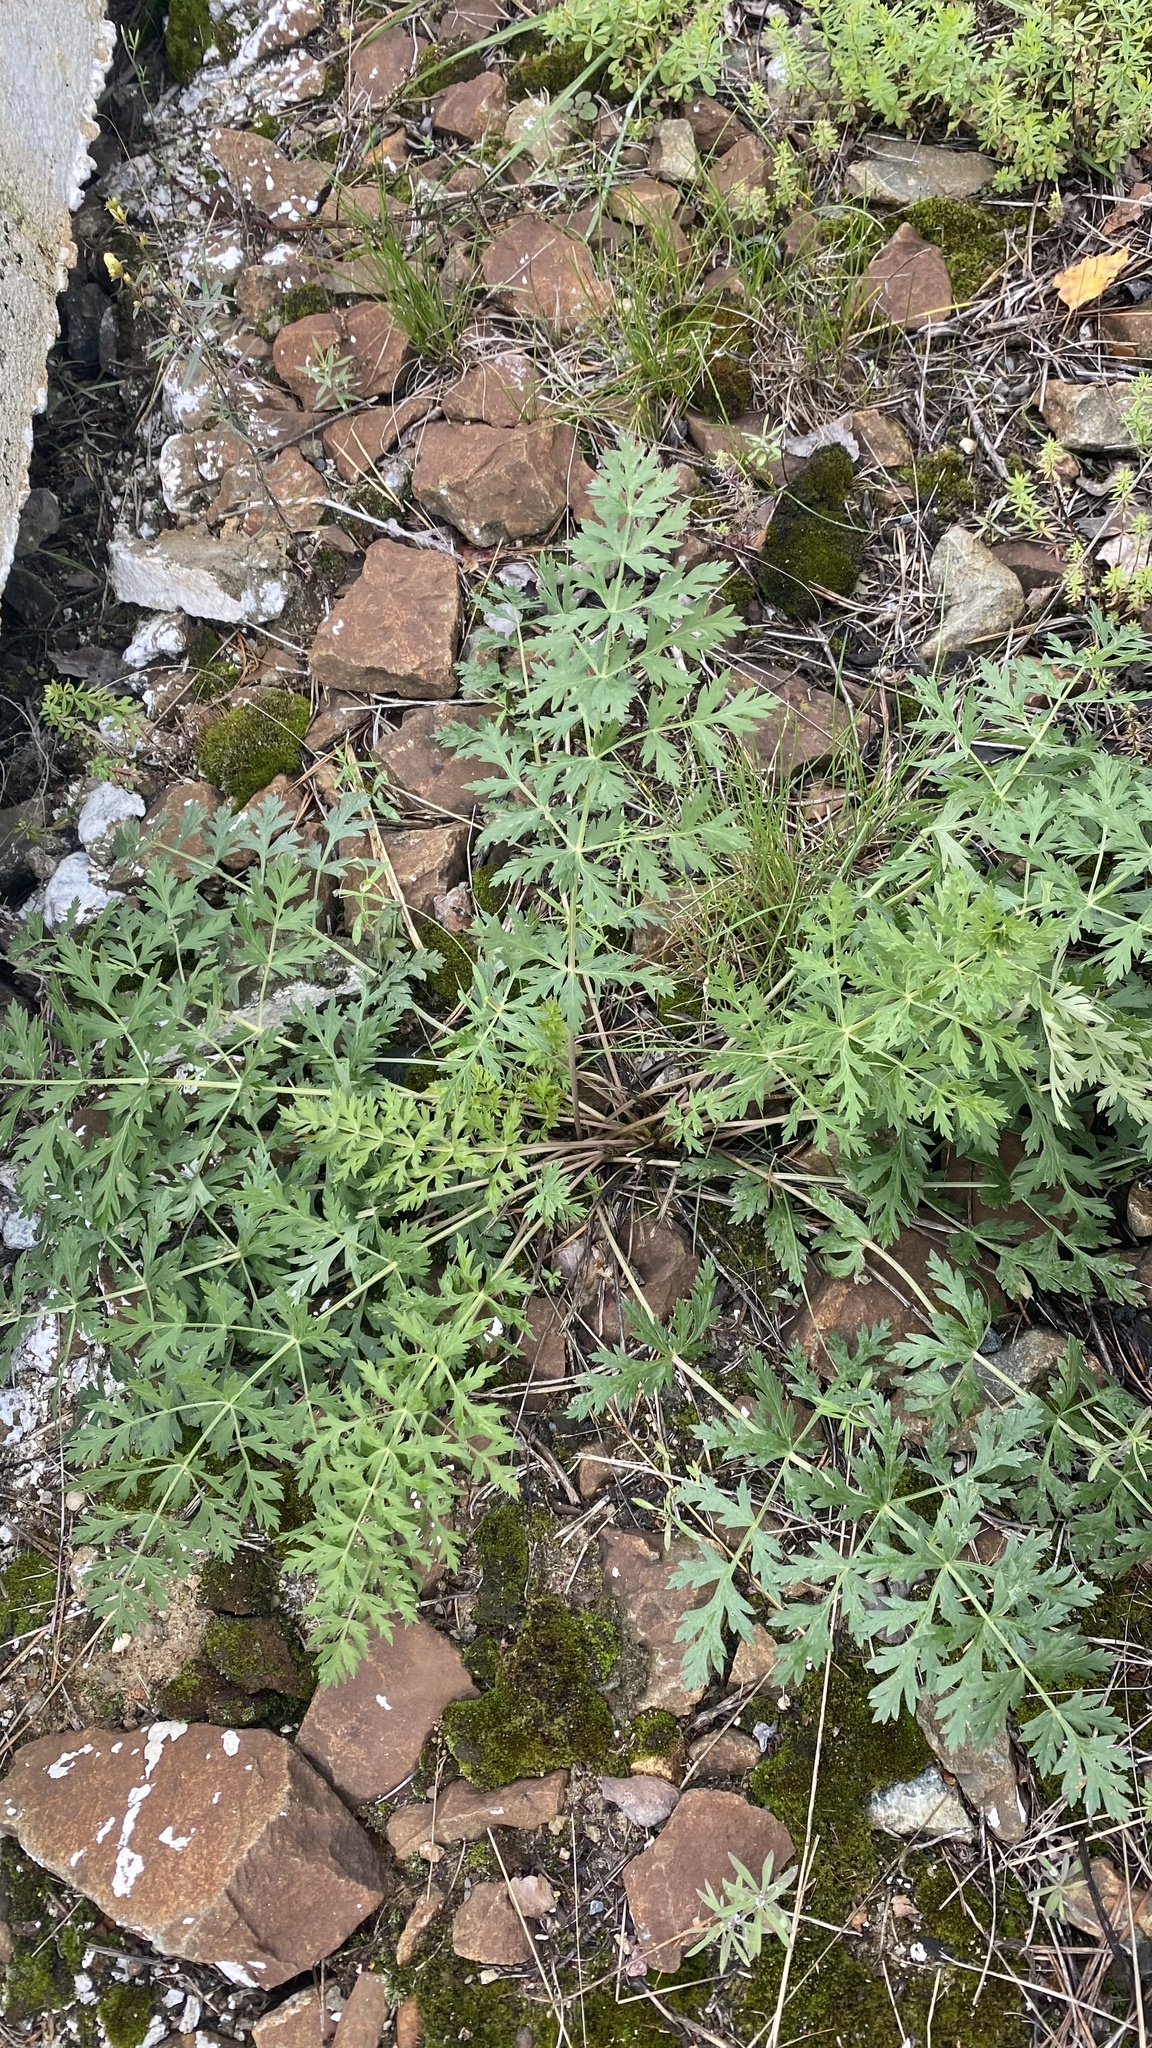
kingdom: Plantae
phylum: Tracheophyta
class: Magnoliopsida
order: Apiales
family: Apiaceae
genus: Seseli
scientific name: Seseli libanotis
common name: Mooncarrot
